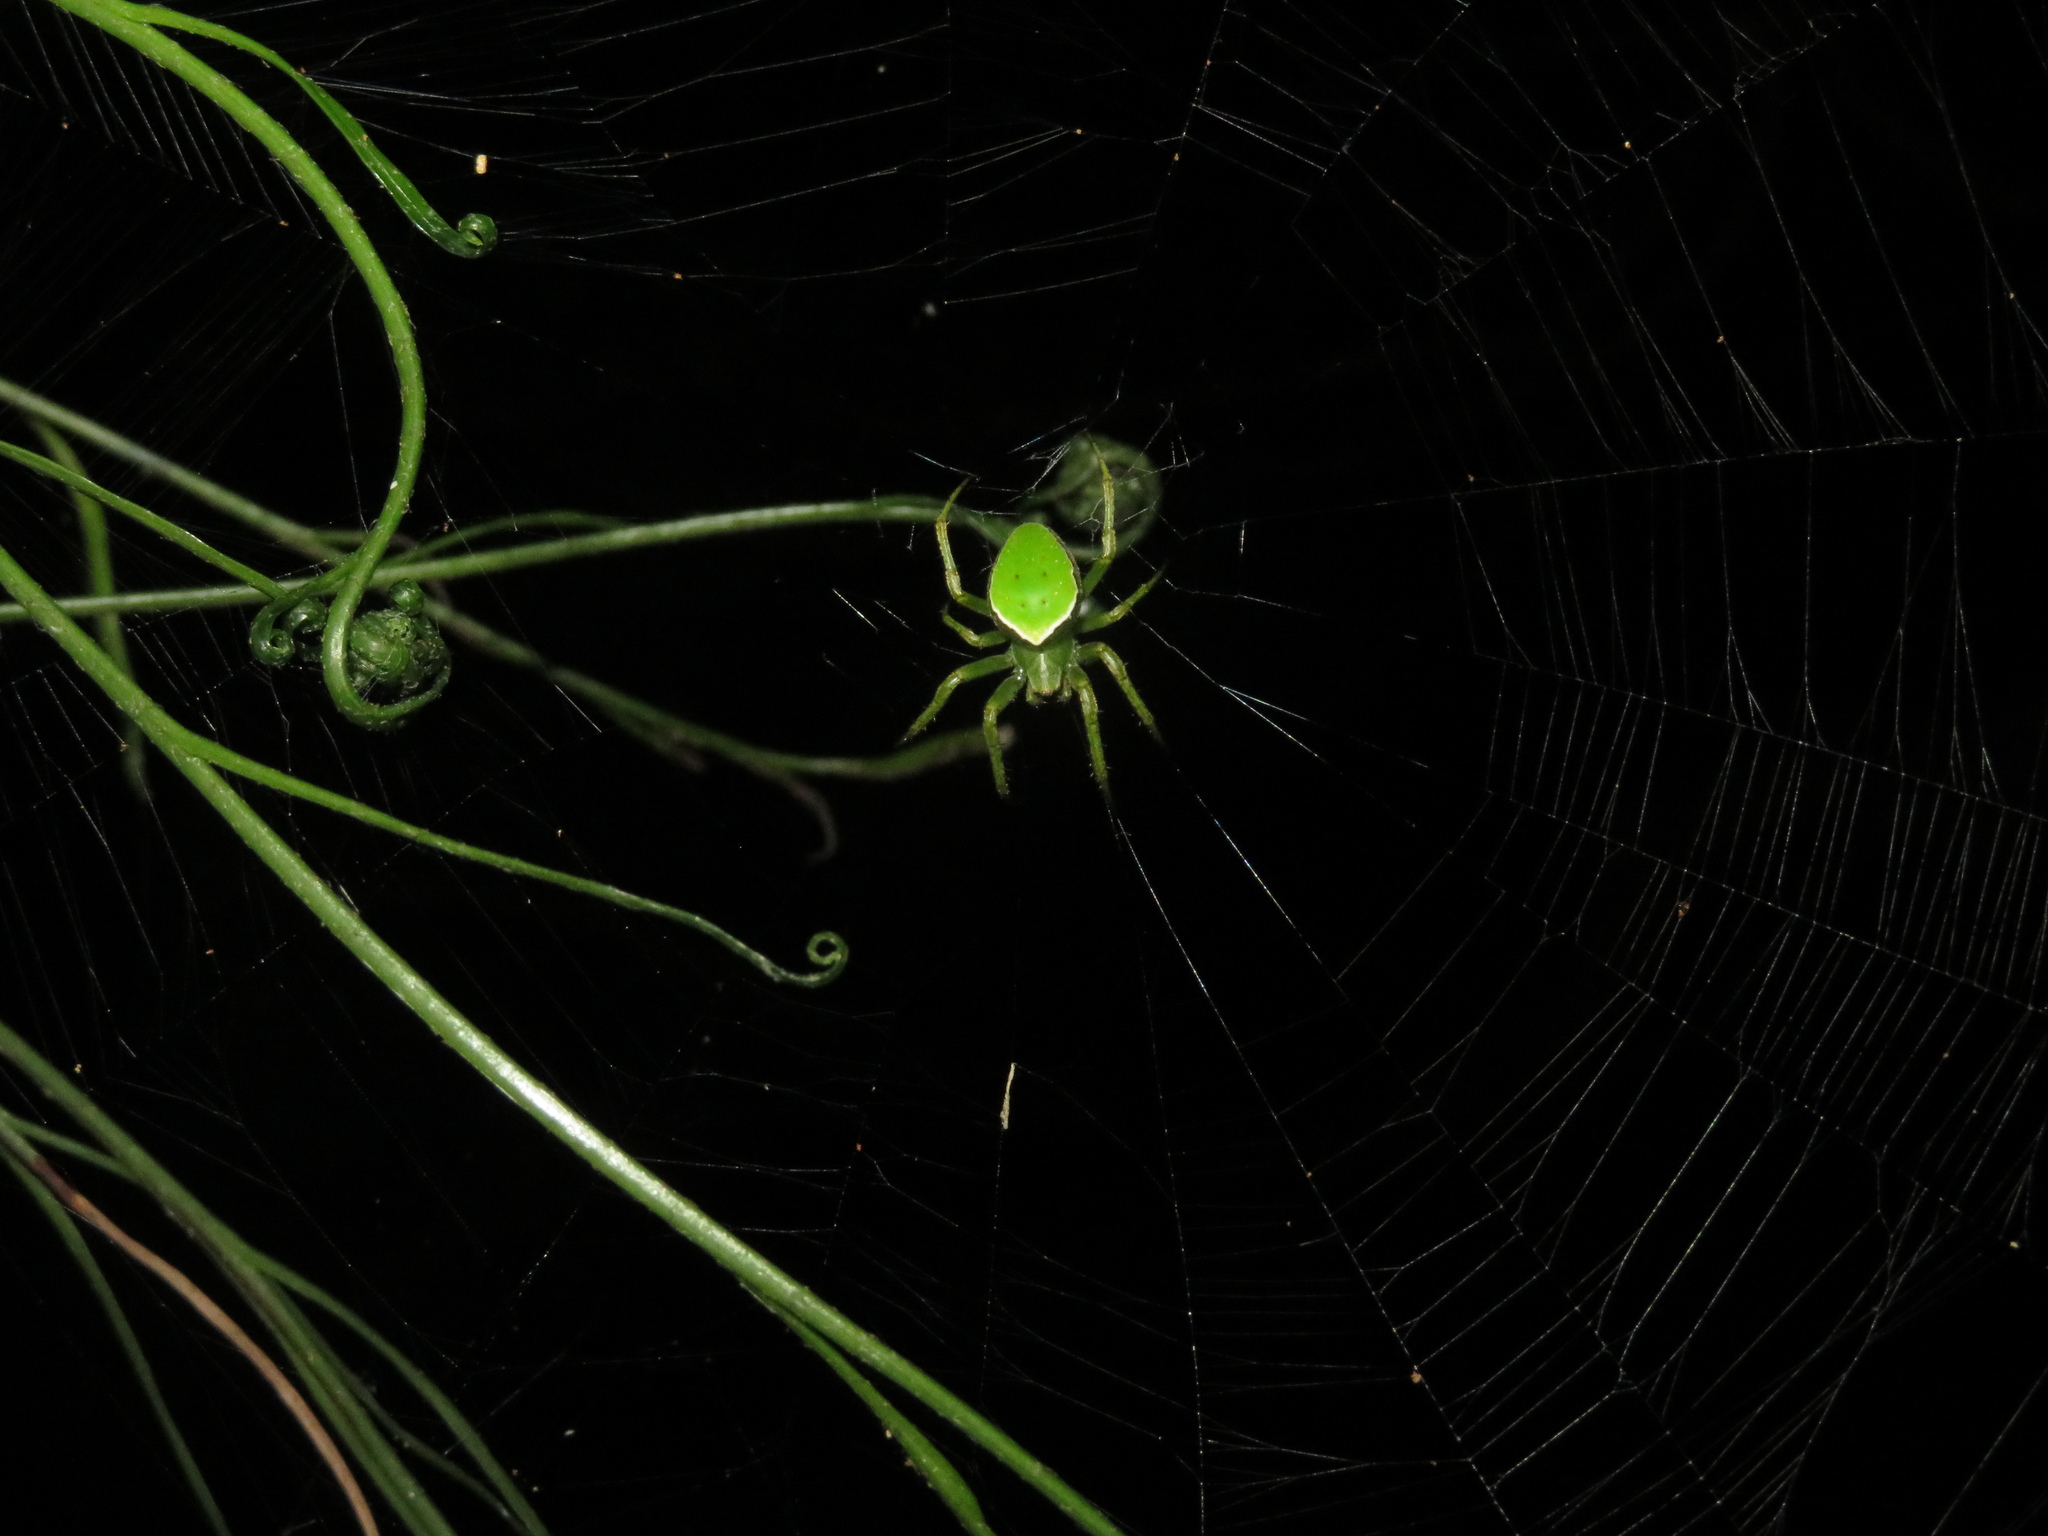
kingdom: Animalia
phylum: Arthropoda
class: Arachnida
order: Araneae
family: Araneidae
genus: Colaranea
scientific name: Colaranea viriditas
